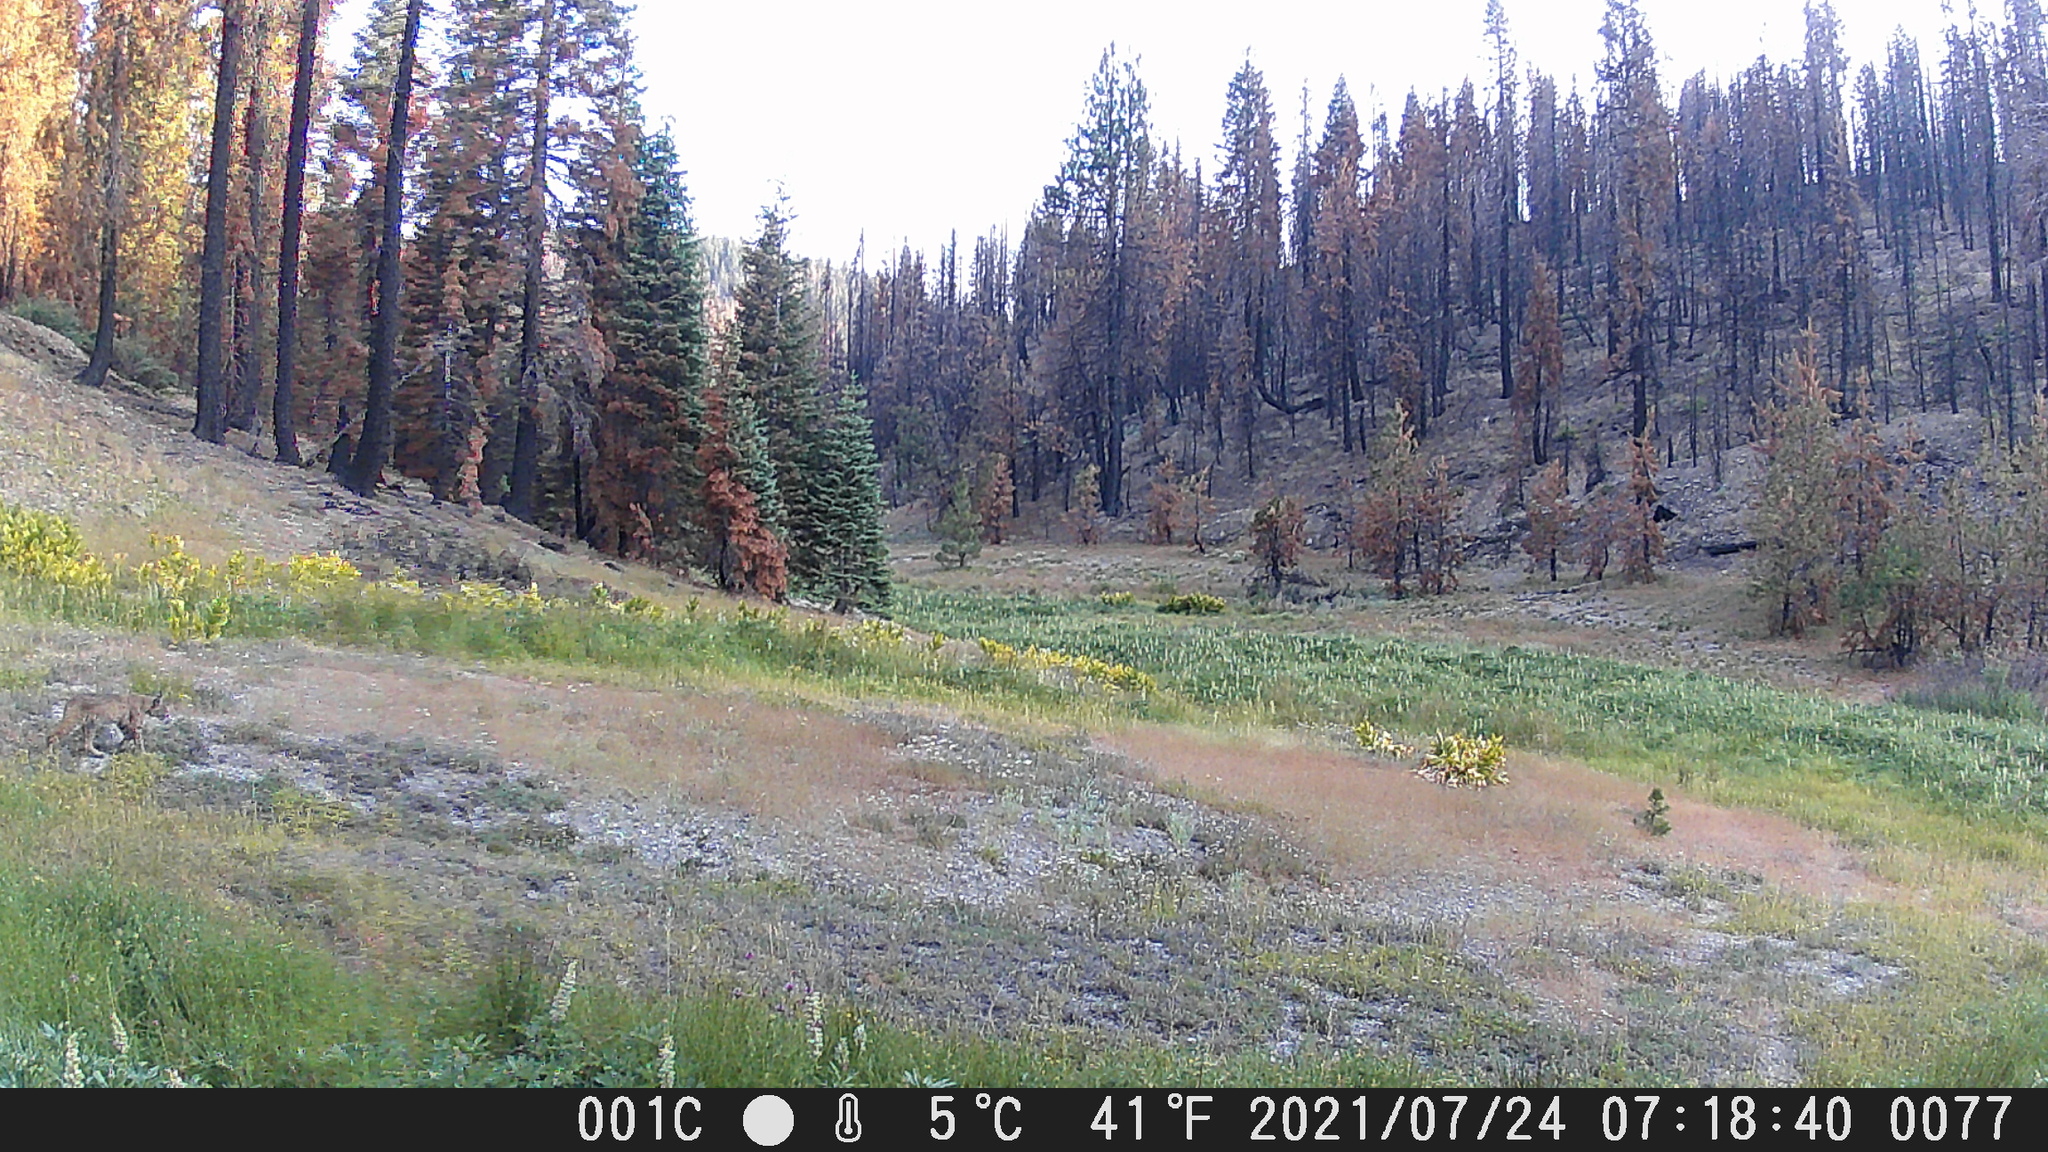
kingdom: Animalia
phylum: Chordata
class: Mammalia
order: Carnivora
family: Felidae
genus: Lynx
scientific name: Lynx rufus
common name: Bobcat
